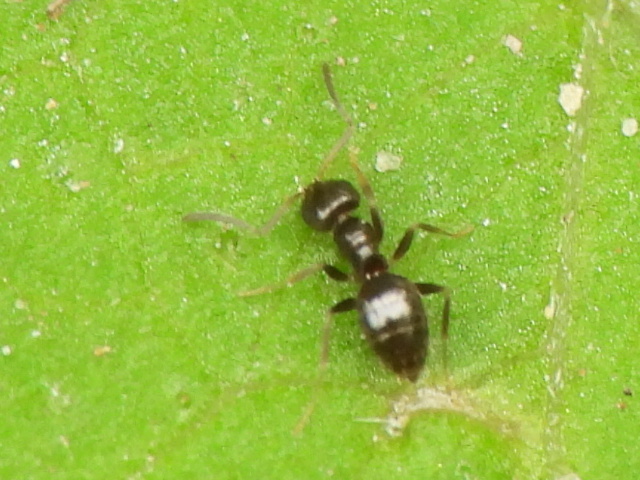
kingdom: Animalia
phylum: Arthropoda
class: Insecta
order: Hymenoptera
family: Formicidae
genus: Brachymyrmex
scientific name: Brachymyrmex patagonicus
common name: Dark rover ant
